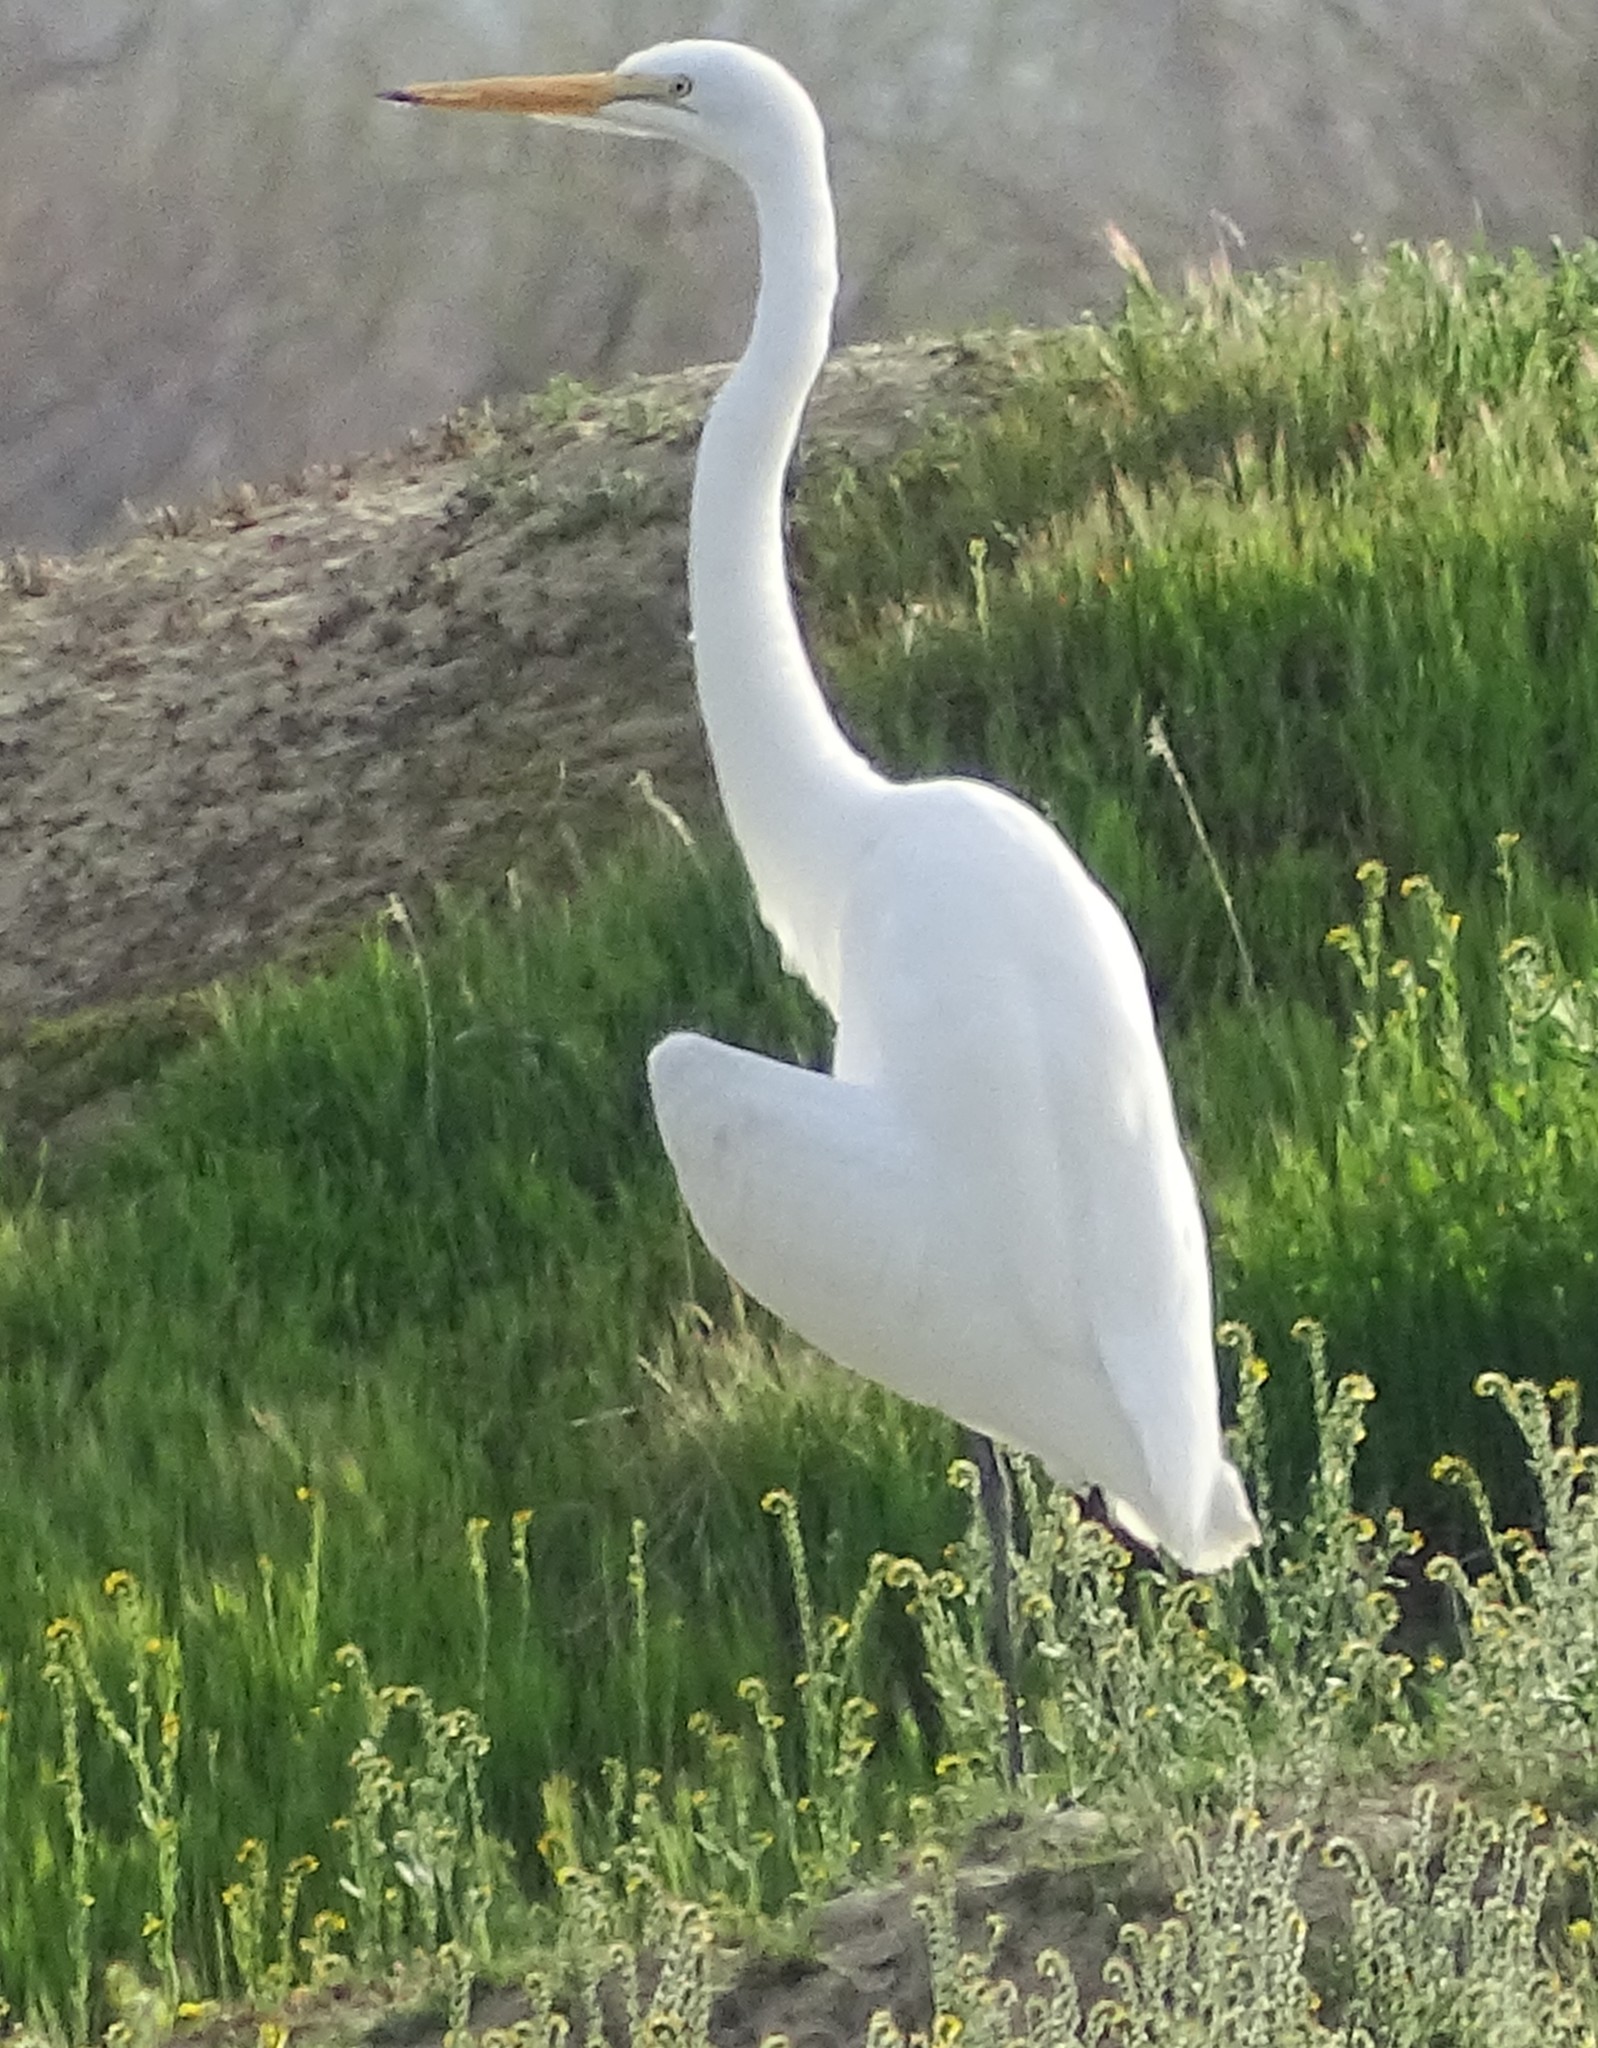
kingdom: Animalia
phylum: Chordata
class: Aves
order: Pelecaniformes
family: Ardeidae
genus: Ardea
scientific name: Ardea alba
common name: Great egret
